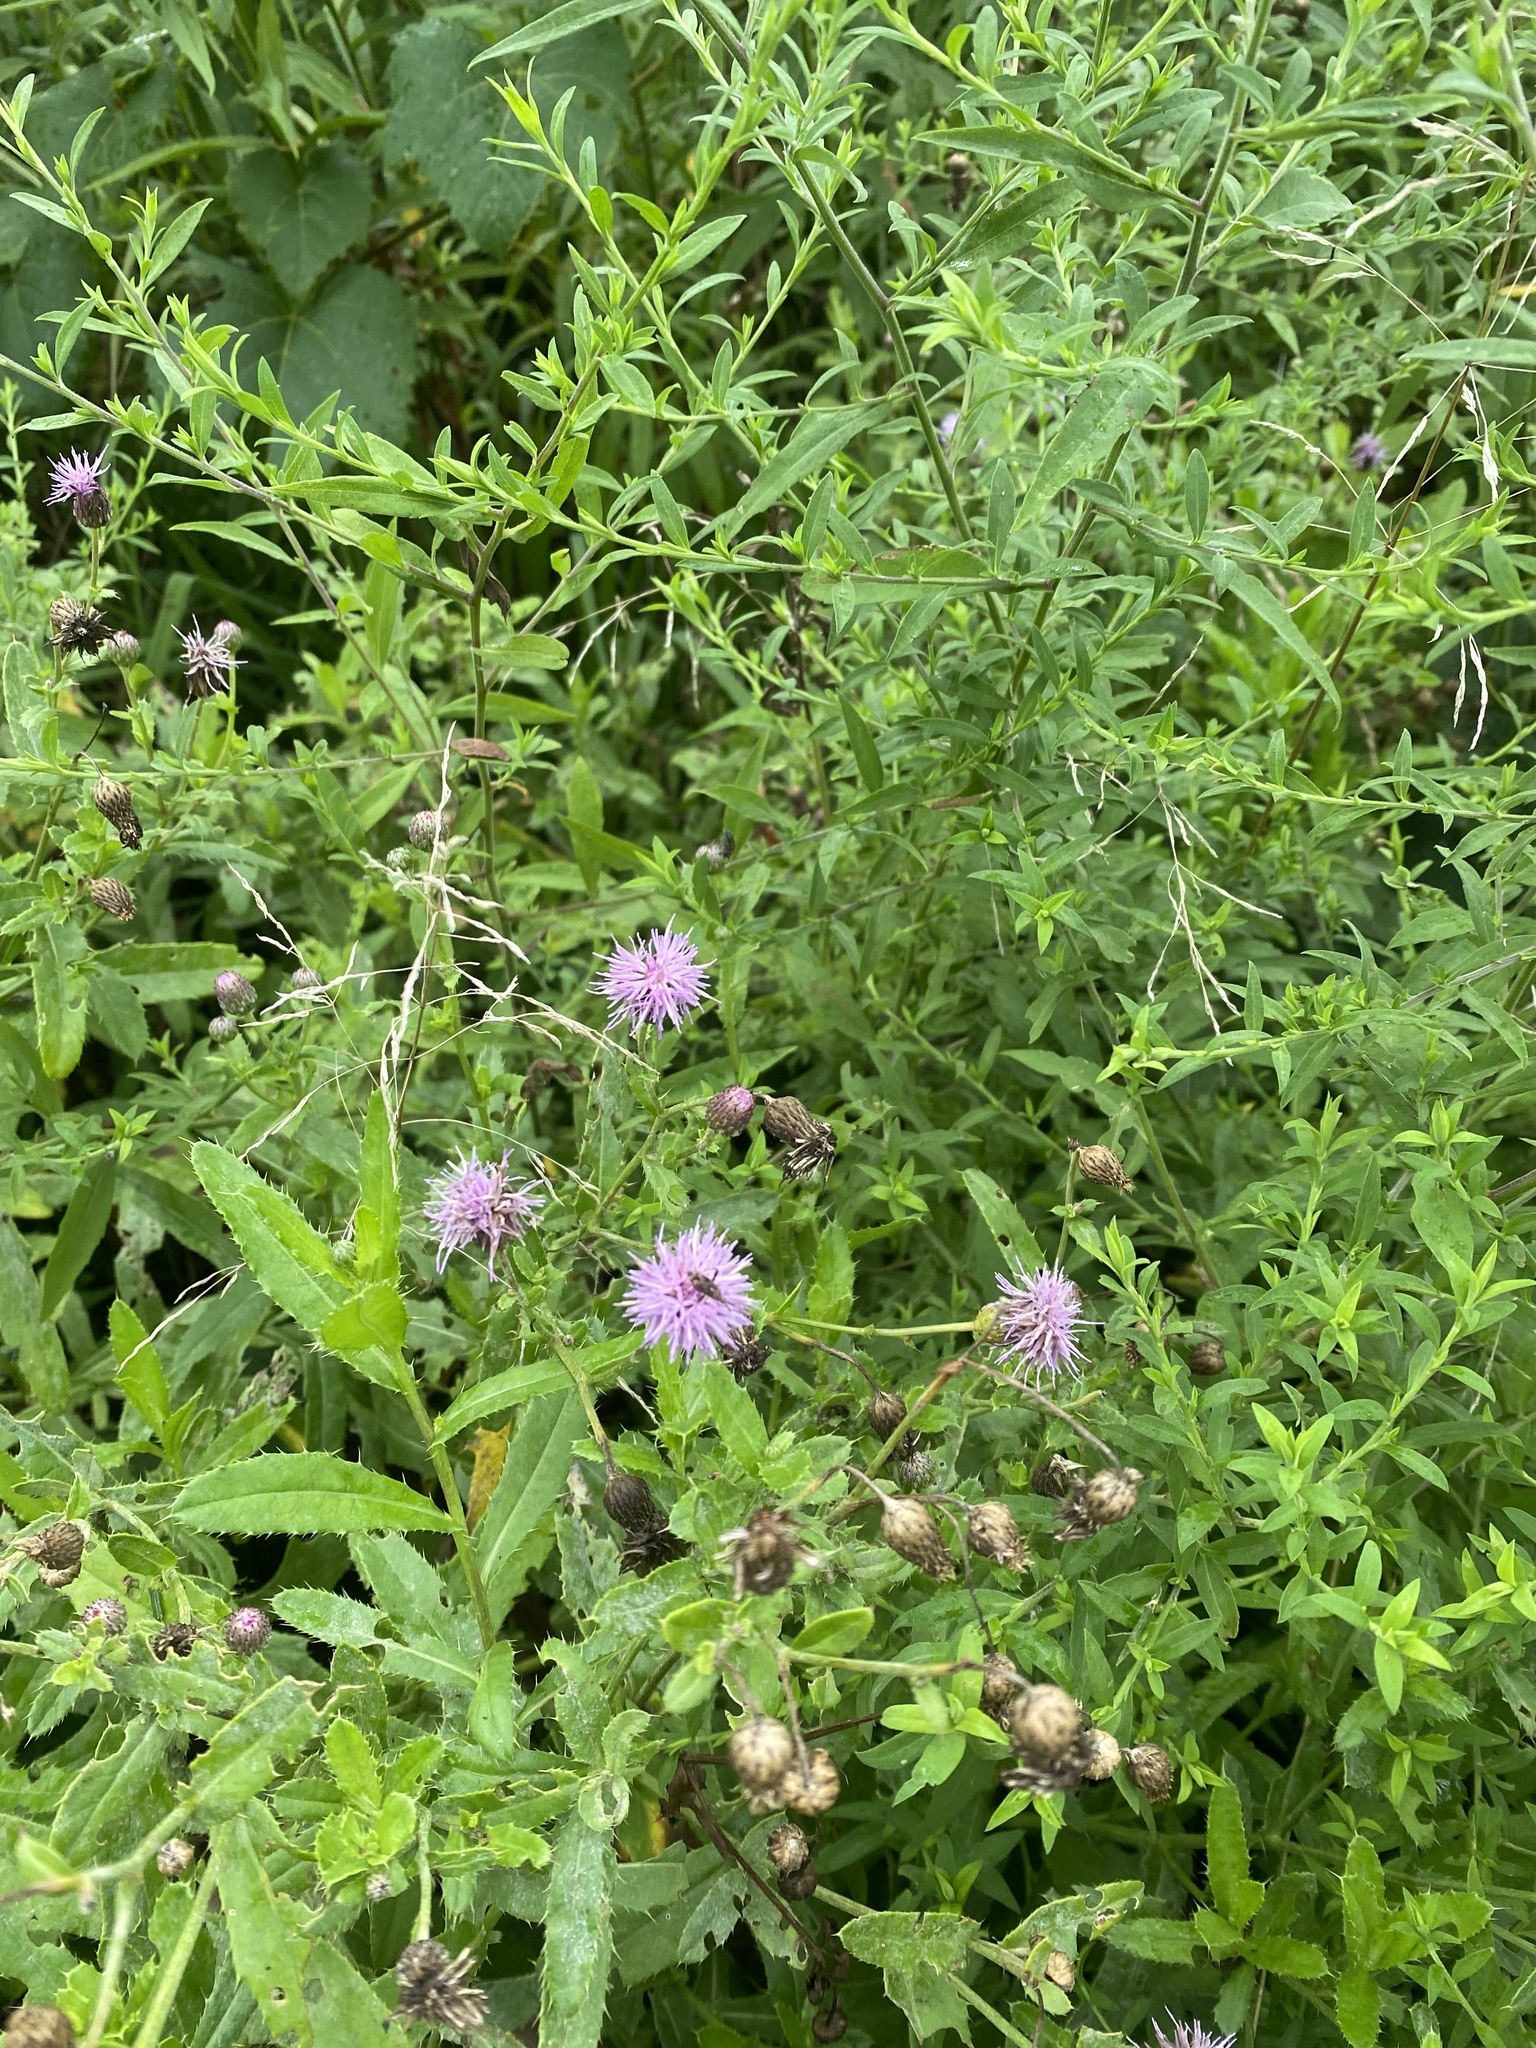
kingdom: Plantae
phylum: Tracheophyta
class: Magnoliopsida
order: Asterales
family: Asteraceae
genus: Cirsium
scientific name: Cirsium arvense
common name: Creeping thistle
